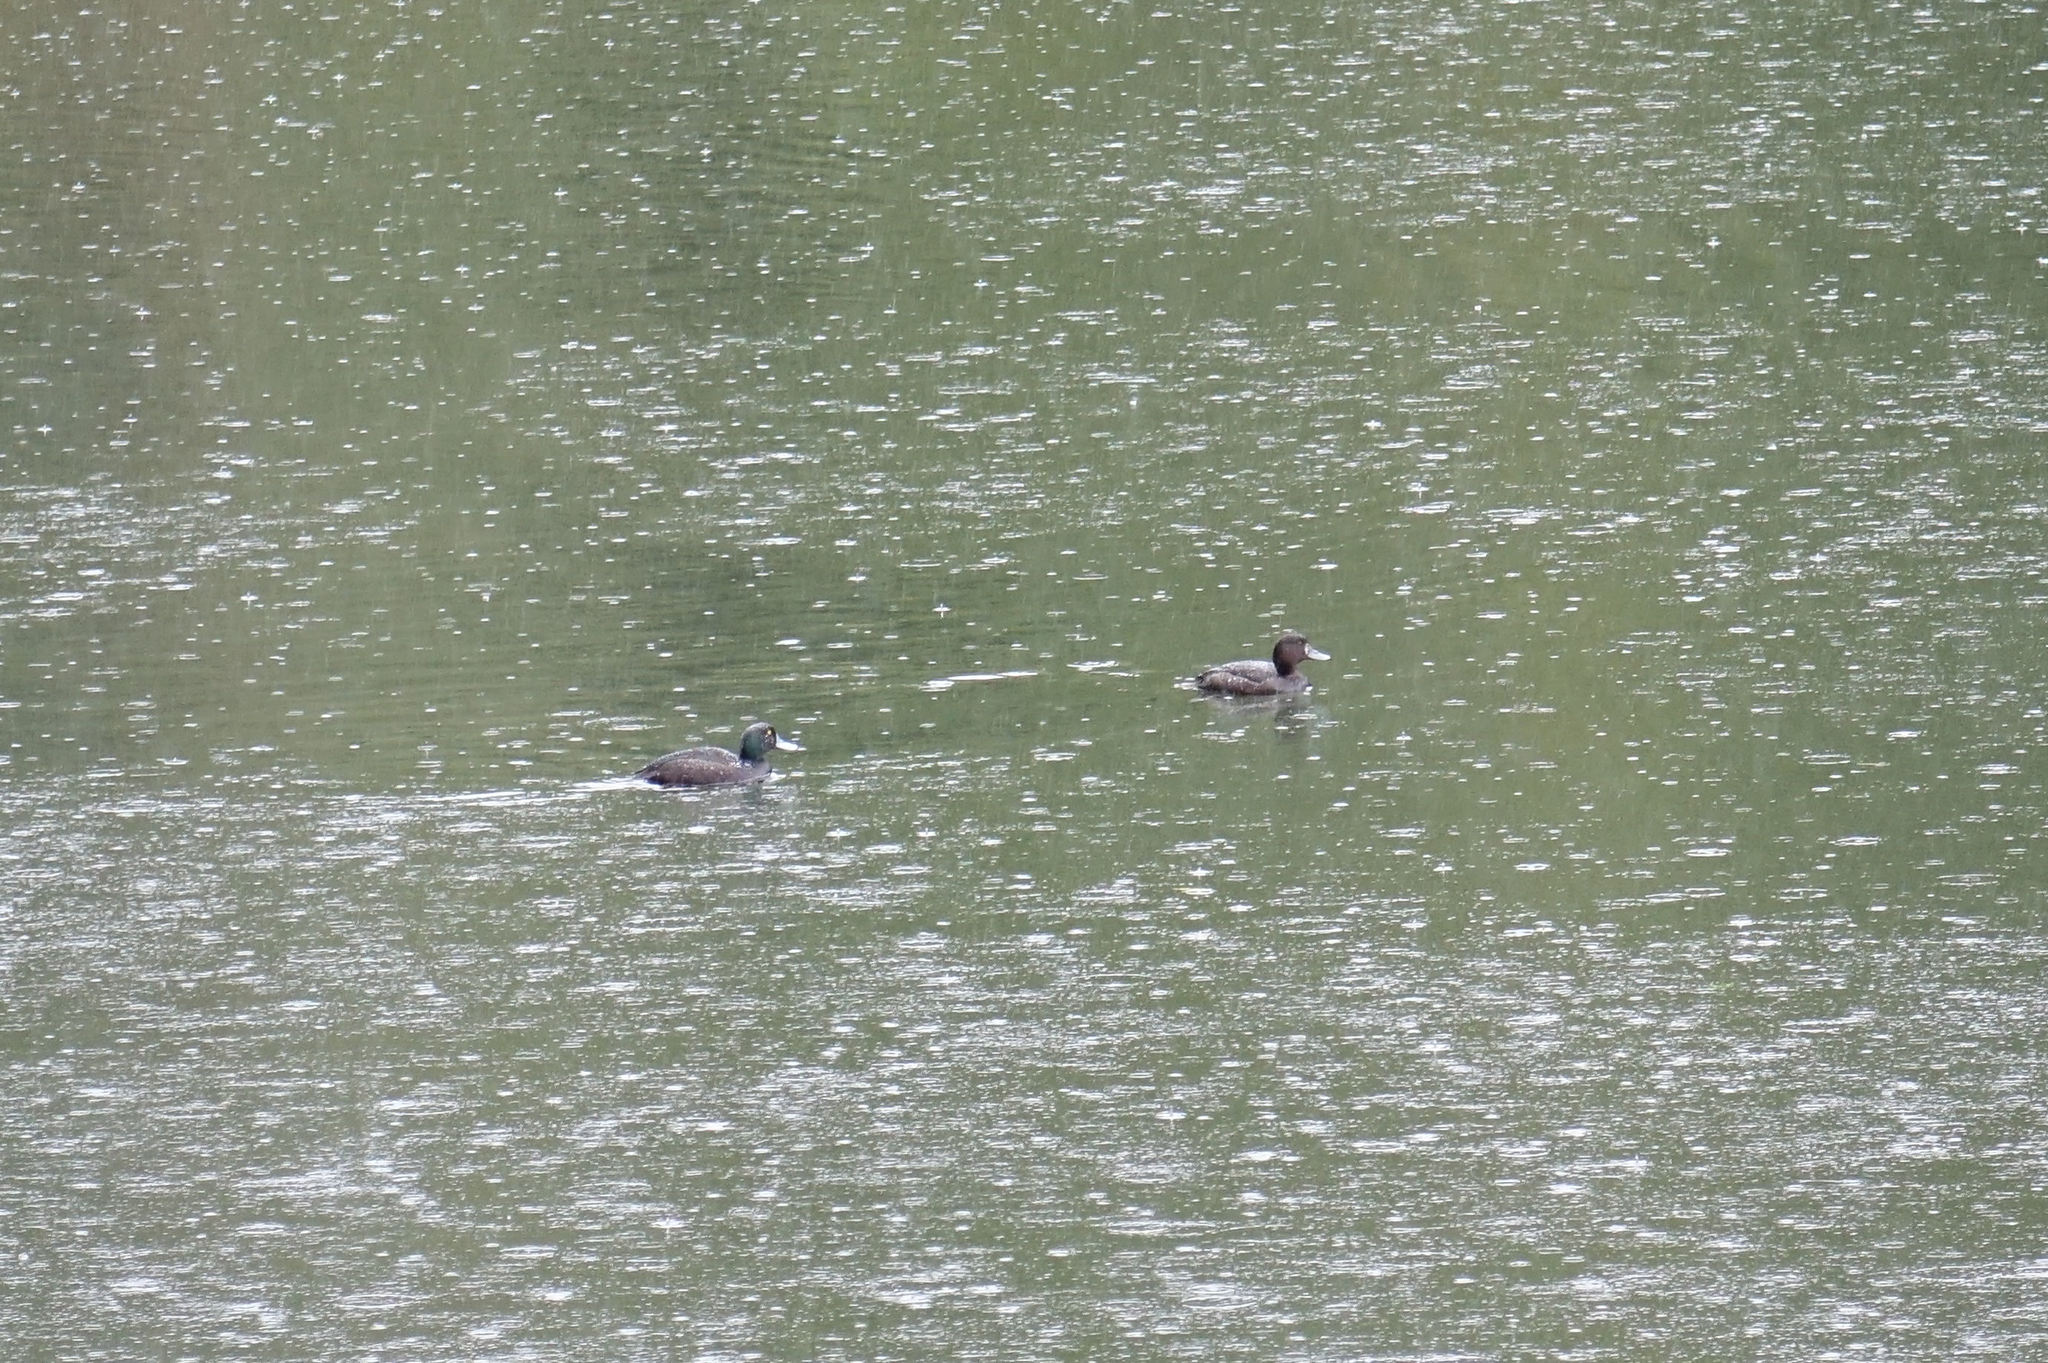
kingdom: Animalia
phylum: Chordata
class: Aves
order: Anseriformes
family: Anatidae
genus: Aythya
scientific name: Aythya novaeseelandiae
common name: New zealand scaup
